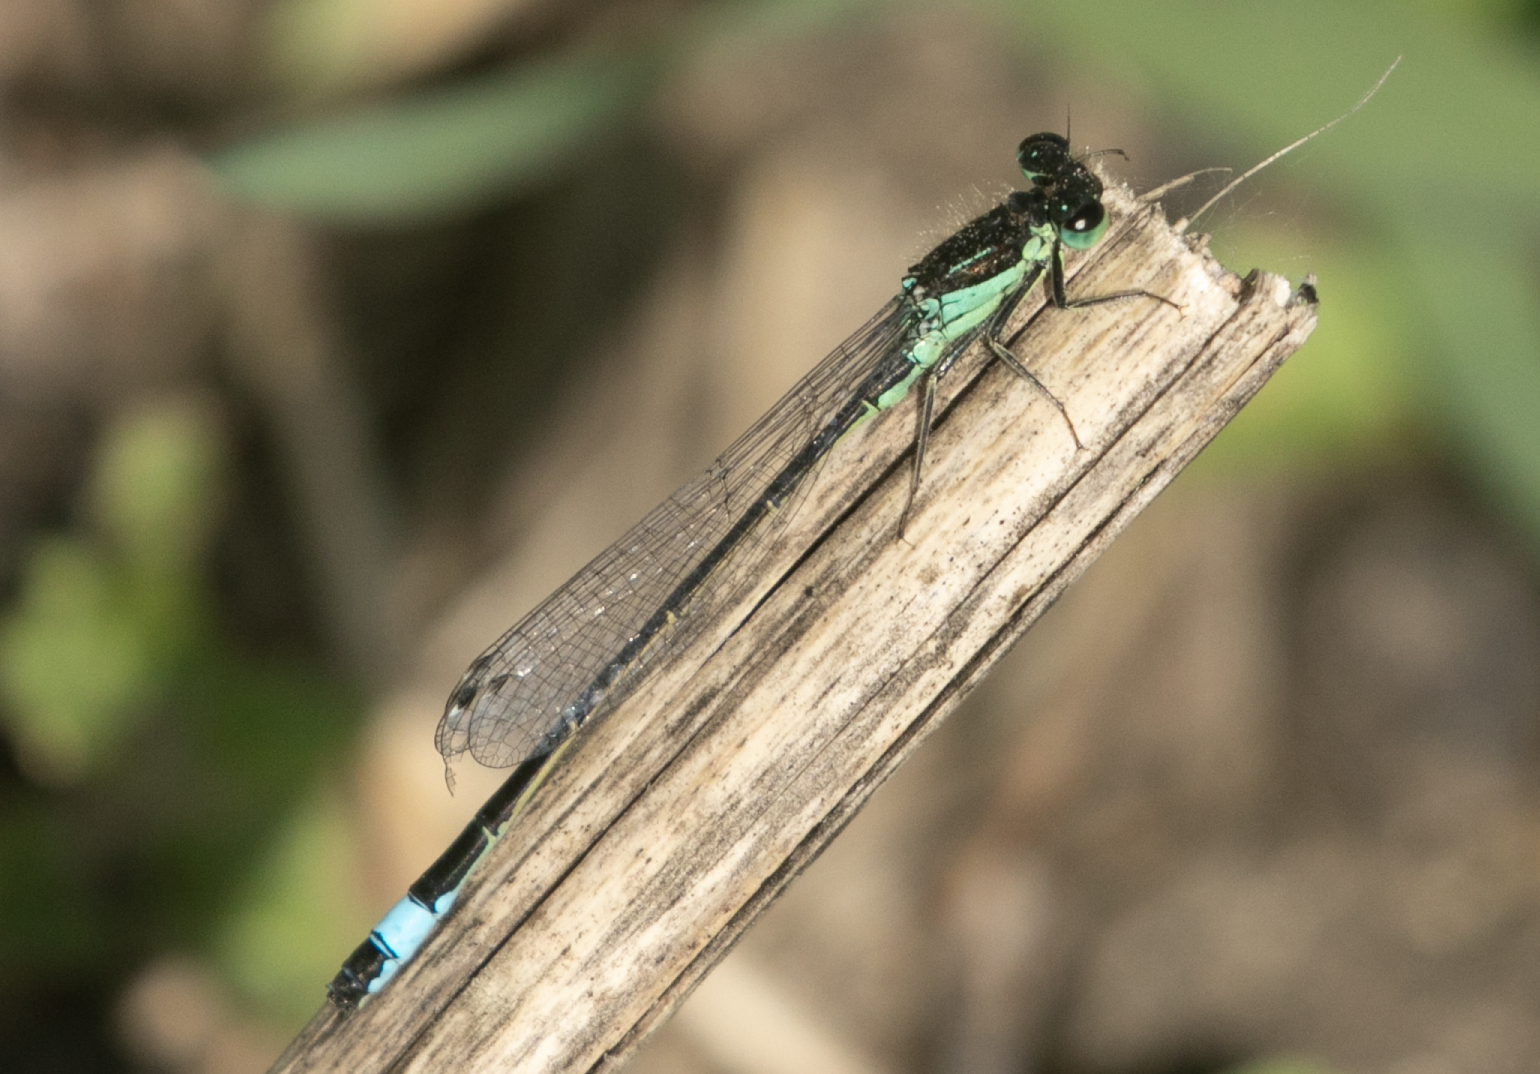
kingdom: Animalia
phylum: Arthropoda
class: Insecta
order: Odonata
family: Coenagrionidae
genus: Ischnura
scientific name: Ischnura elegans
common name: Blue-tailed damselfly
